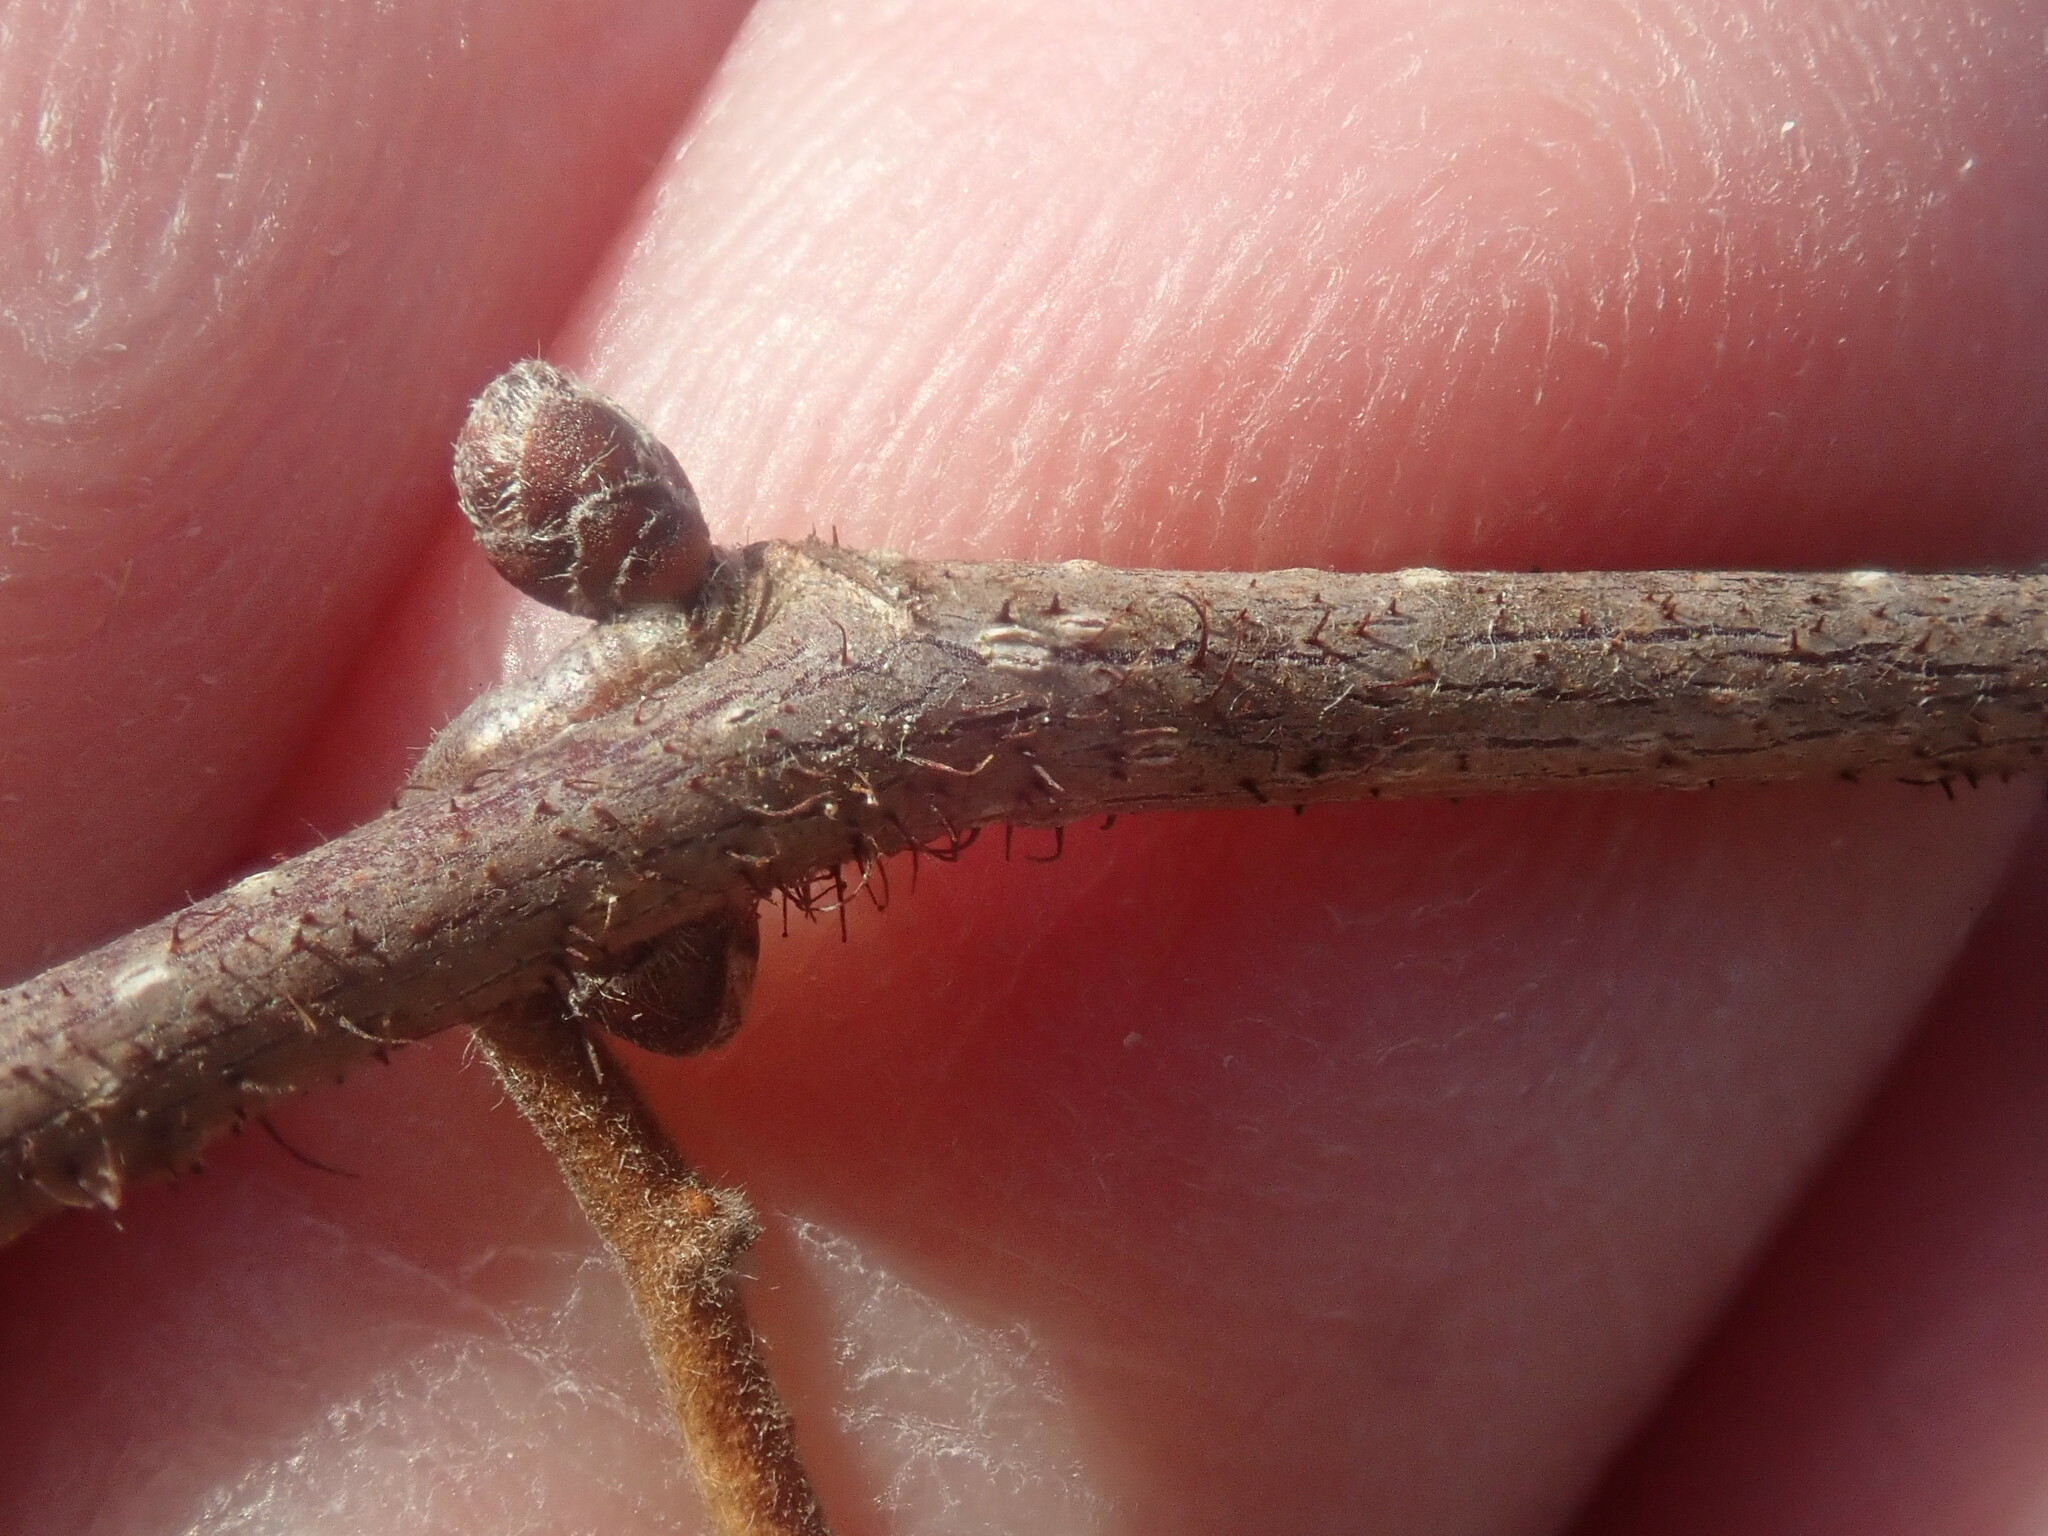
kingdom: Plantae
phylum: Tracheophyta
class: Magnoliopsida
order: Fagales
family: Betulaceae
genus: Corylus
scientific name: Corylus americana
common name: American hazel
